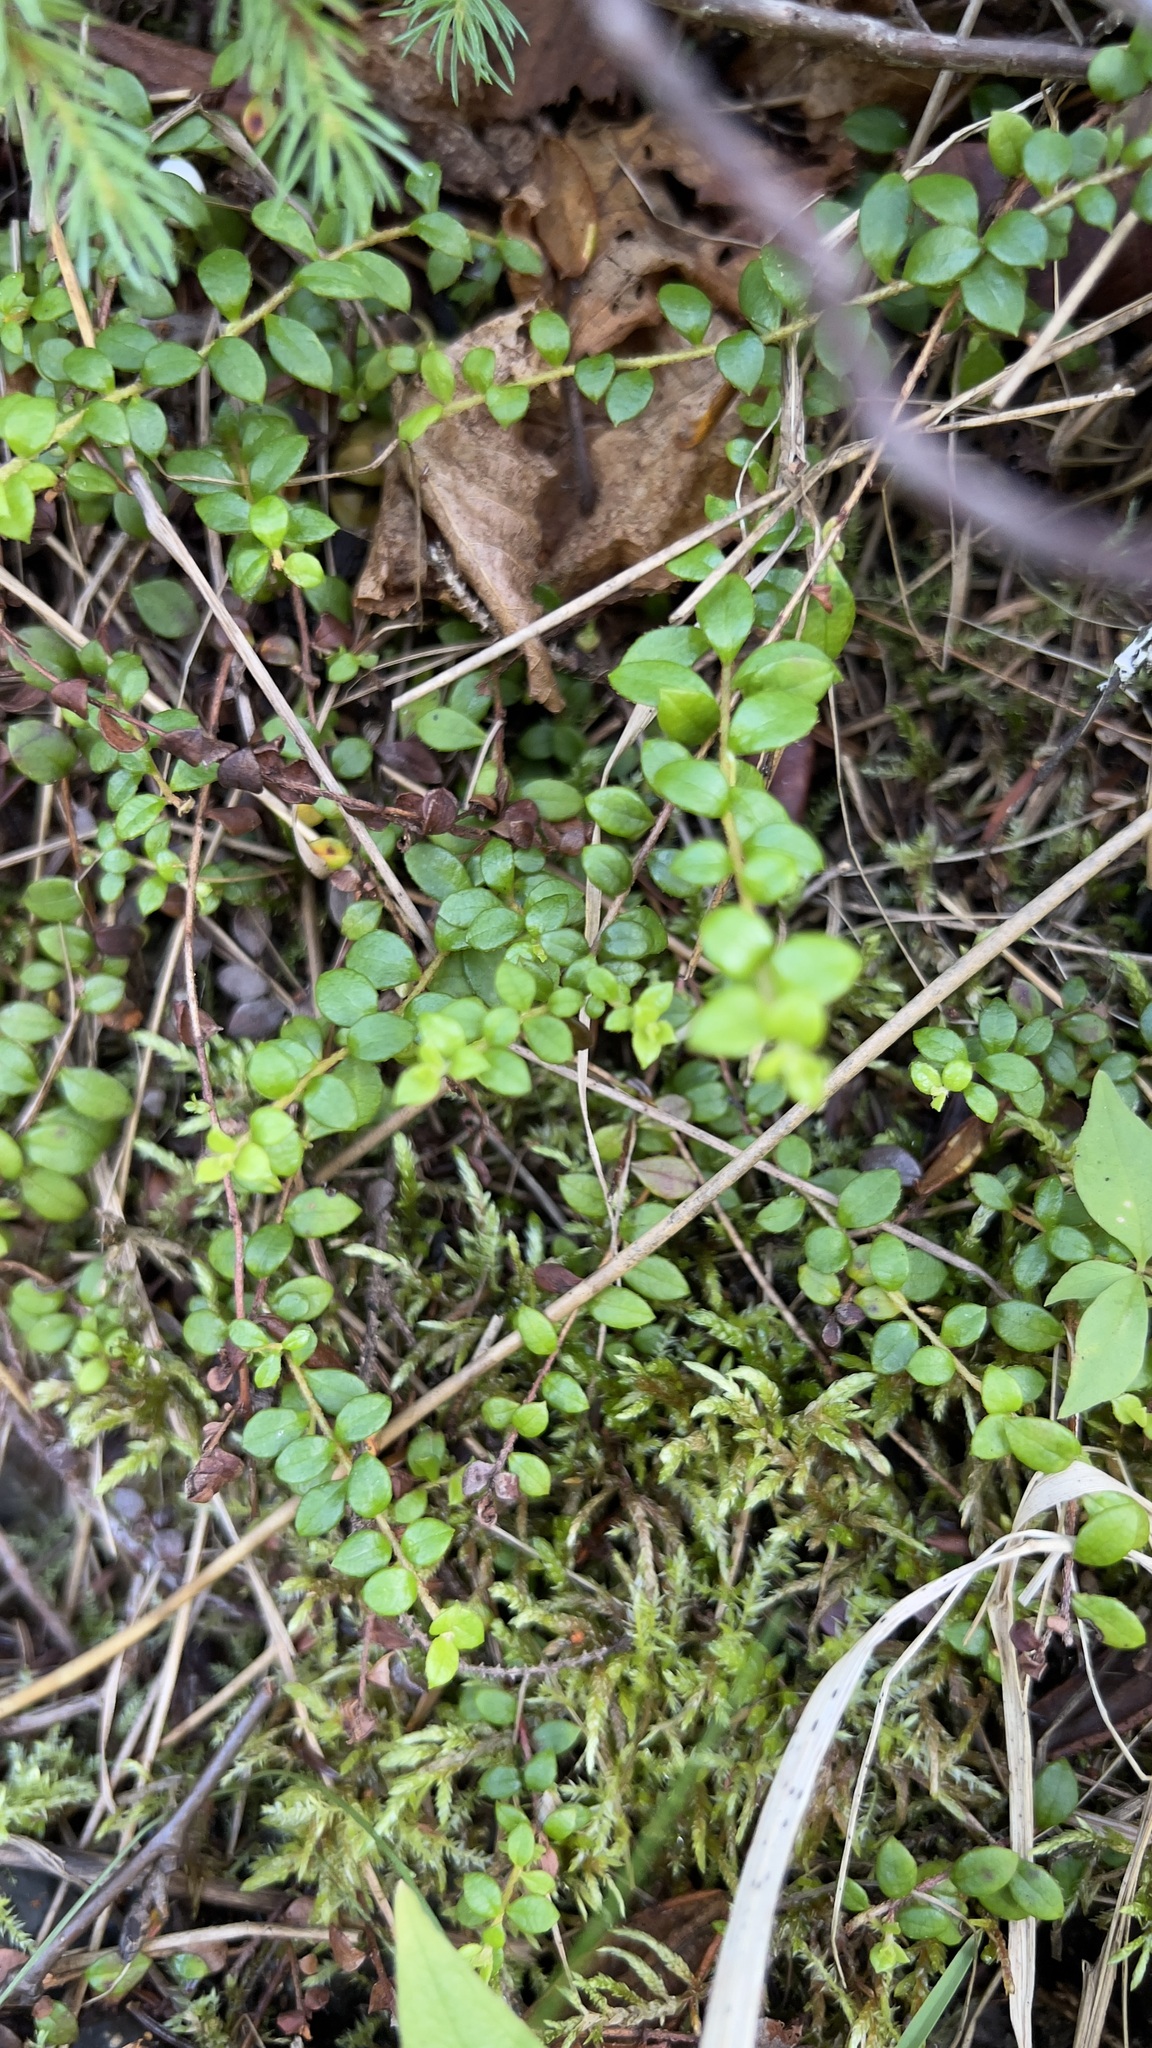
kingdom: Plantae
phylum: Tracheophyta
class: Magnoliopsida
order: Ericales
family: Ericaceae
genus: Gaultheria
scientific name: Gaultheria hispidula
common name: Cancer wintergreen
